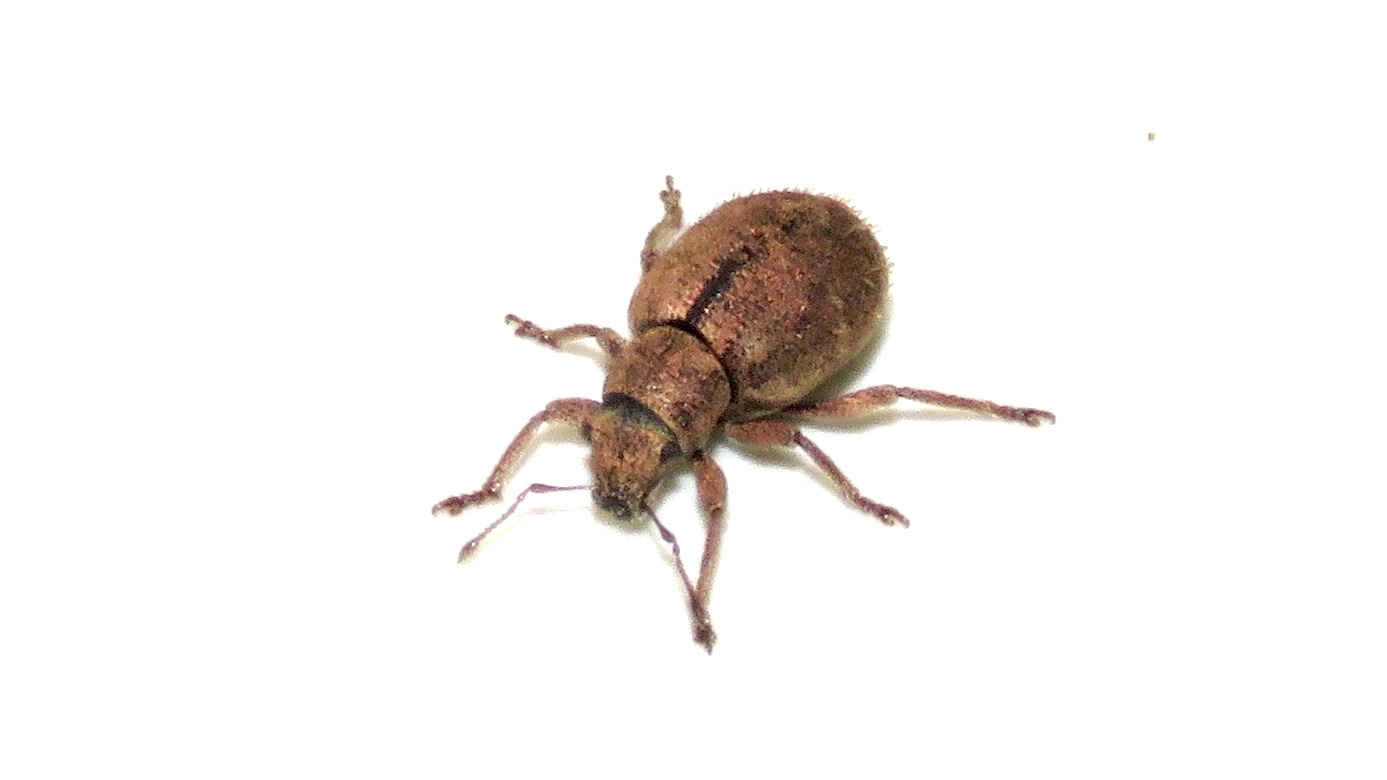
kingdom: Animalia
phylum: Arthropoda
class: Insecta
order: Coleoptera
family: Curculionidae
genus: Strophosoma
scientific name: Strophosoma melanogrammum
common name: Weevil
